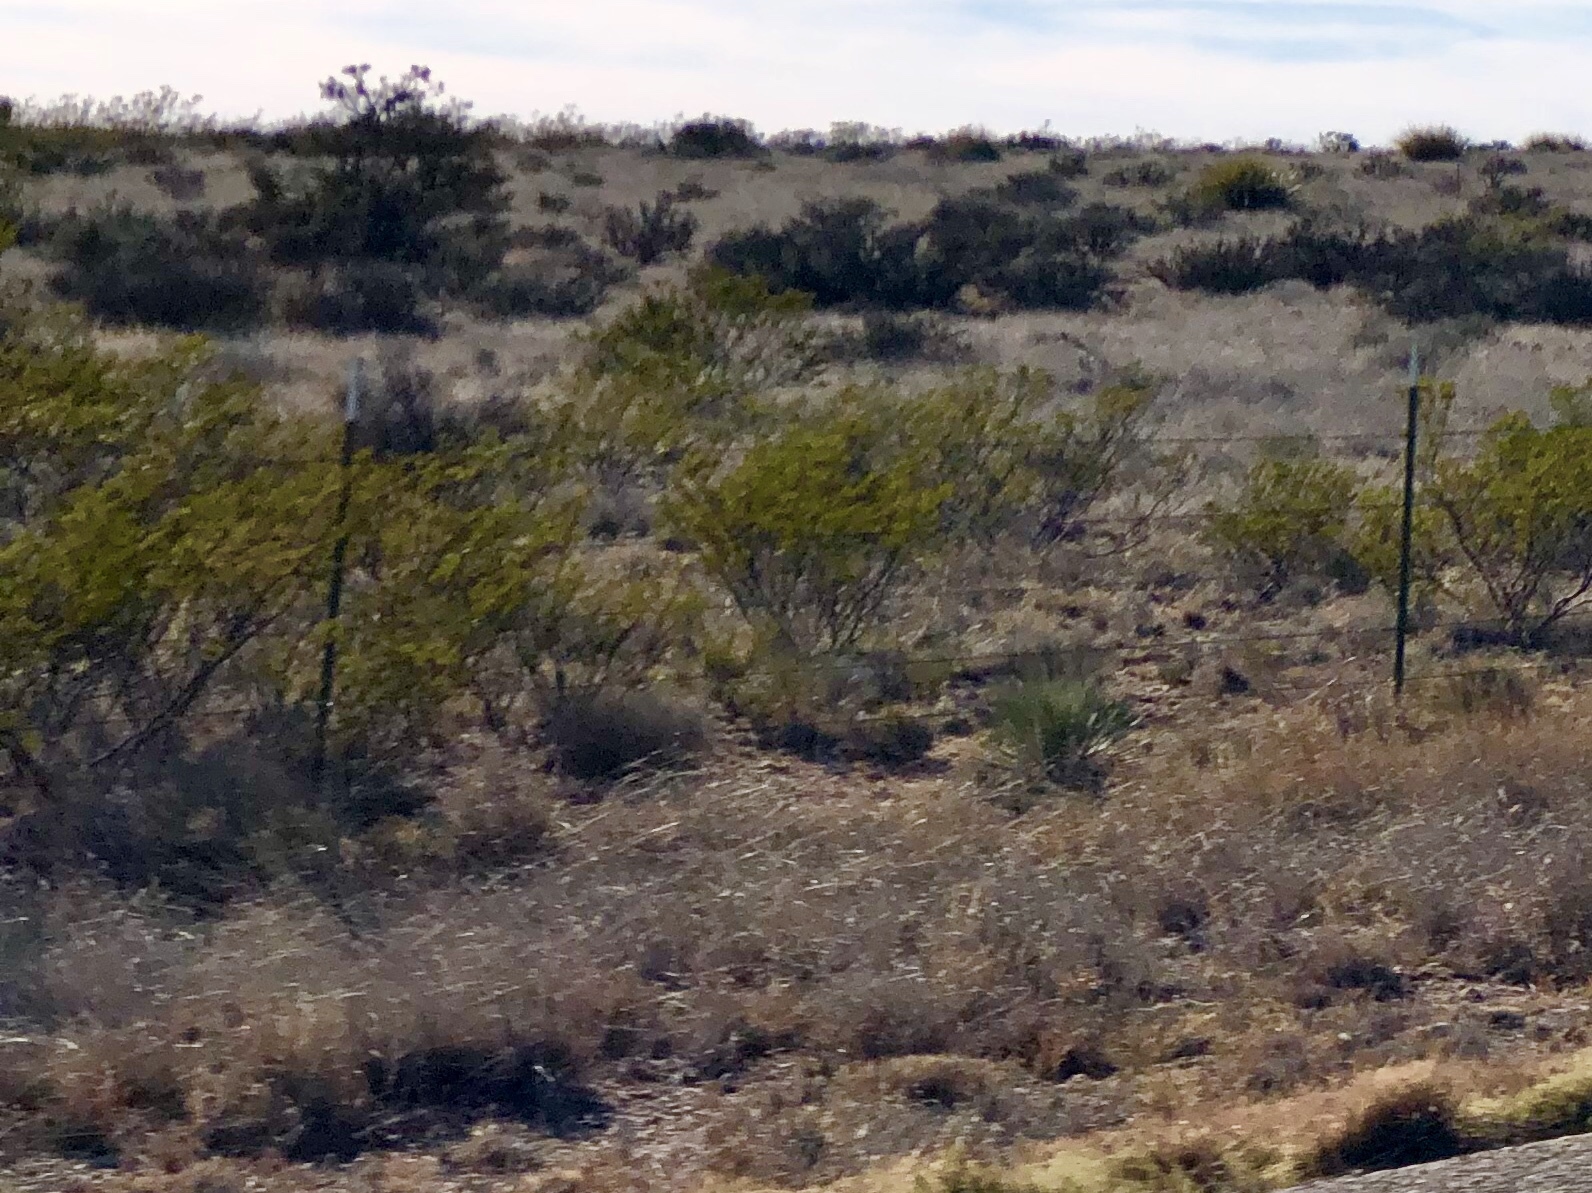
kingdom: Plantae
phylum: Tracheophyta
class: Magnoliopsida
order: Zygophyllales
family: Zygophyllaceae
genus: Larrea
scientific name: Larrea tridentata
